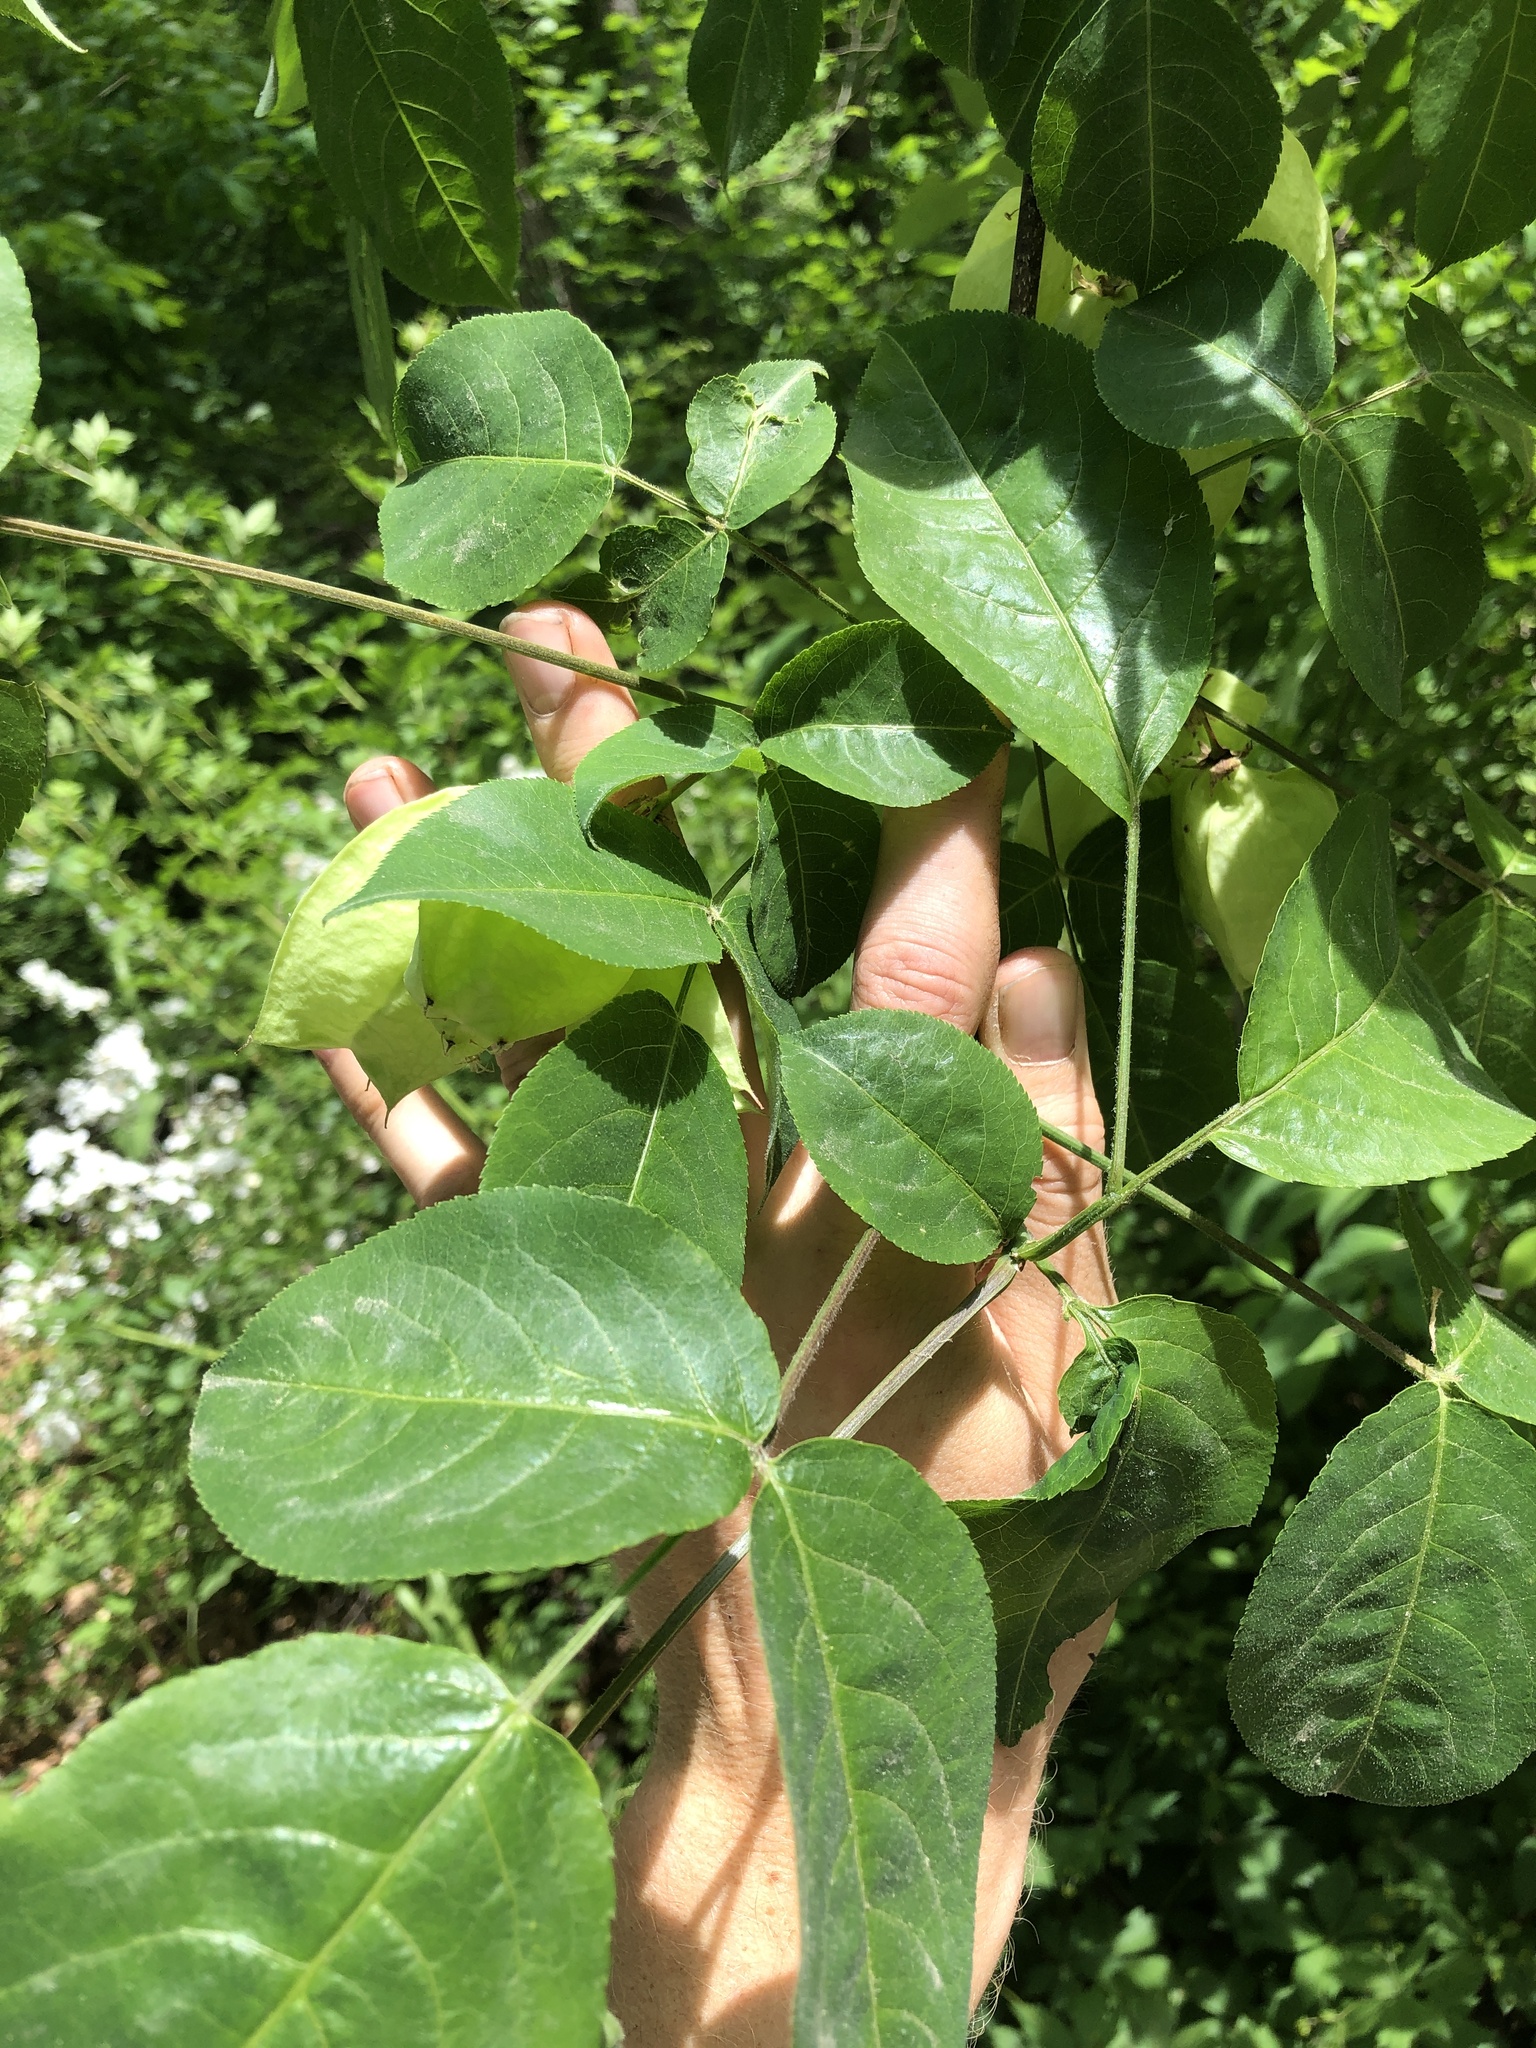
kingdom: Plantae
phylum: Tracheophyta
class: Magnoliopsida
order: Crossosomatales
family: Staphyleaceae
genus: Staphylea
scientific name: Staphylea trifolia
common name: American bladdernut
